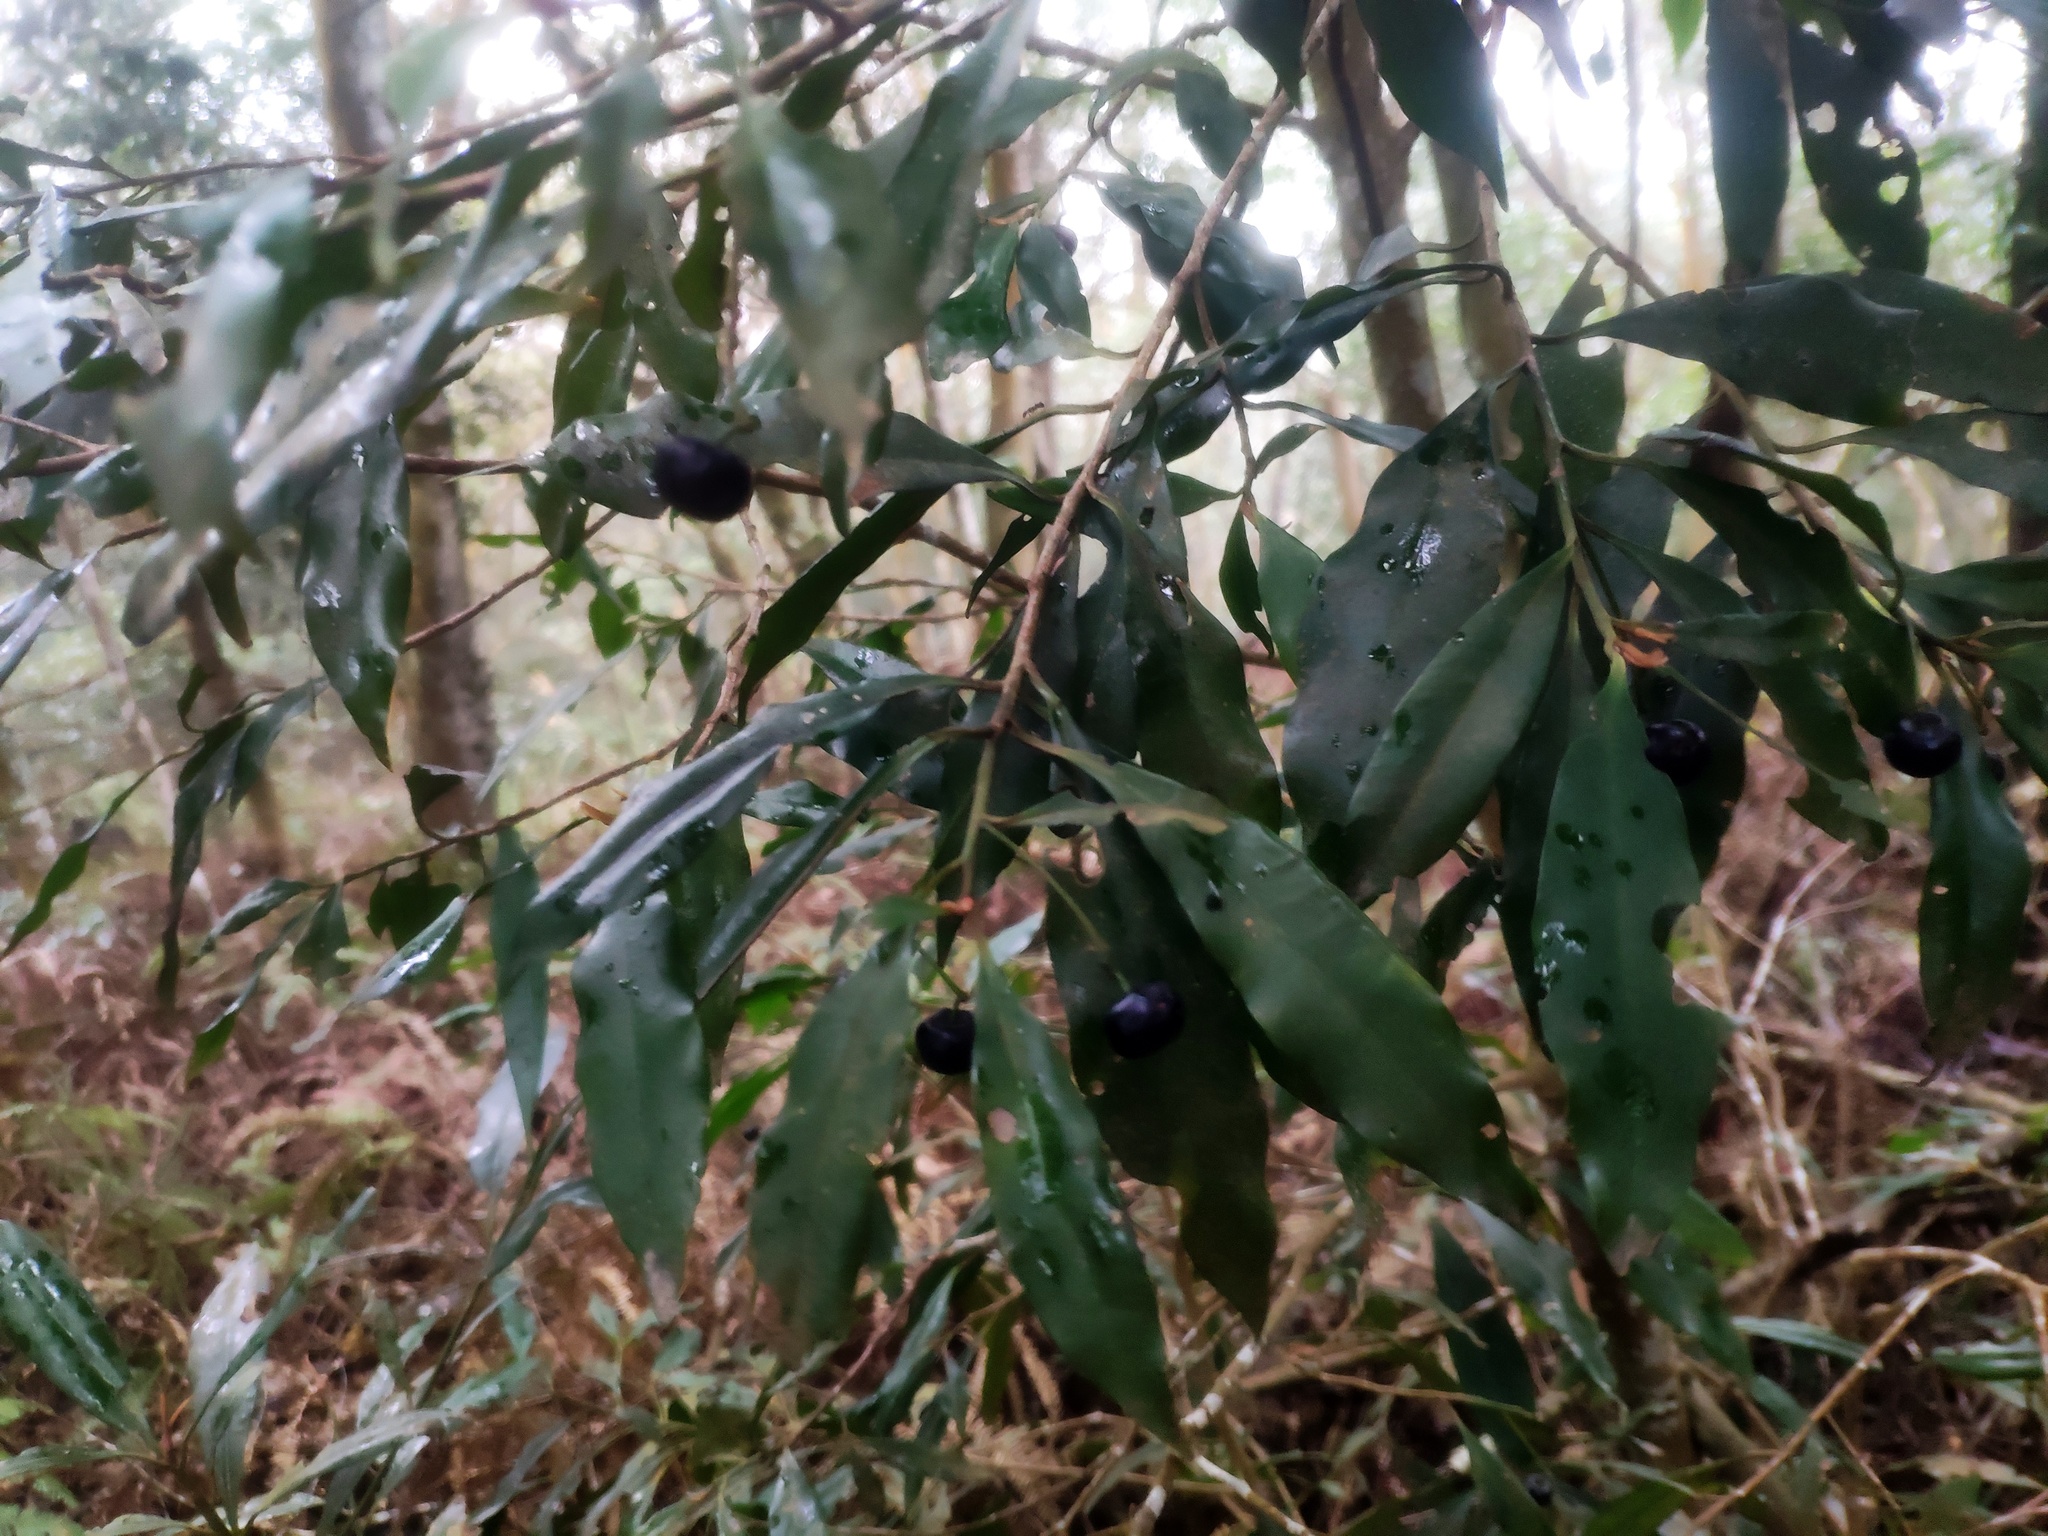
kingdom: Plantae
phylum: Tracheophyta
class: Magnoliopsida
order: Ericales
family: Primulaceae
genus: Ardisia
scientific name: Ardisia quinquegona
